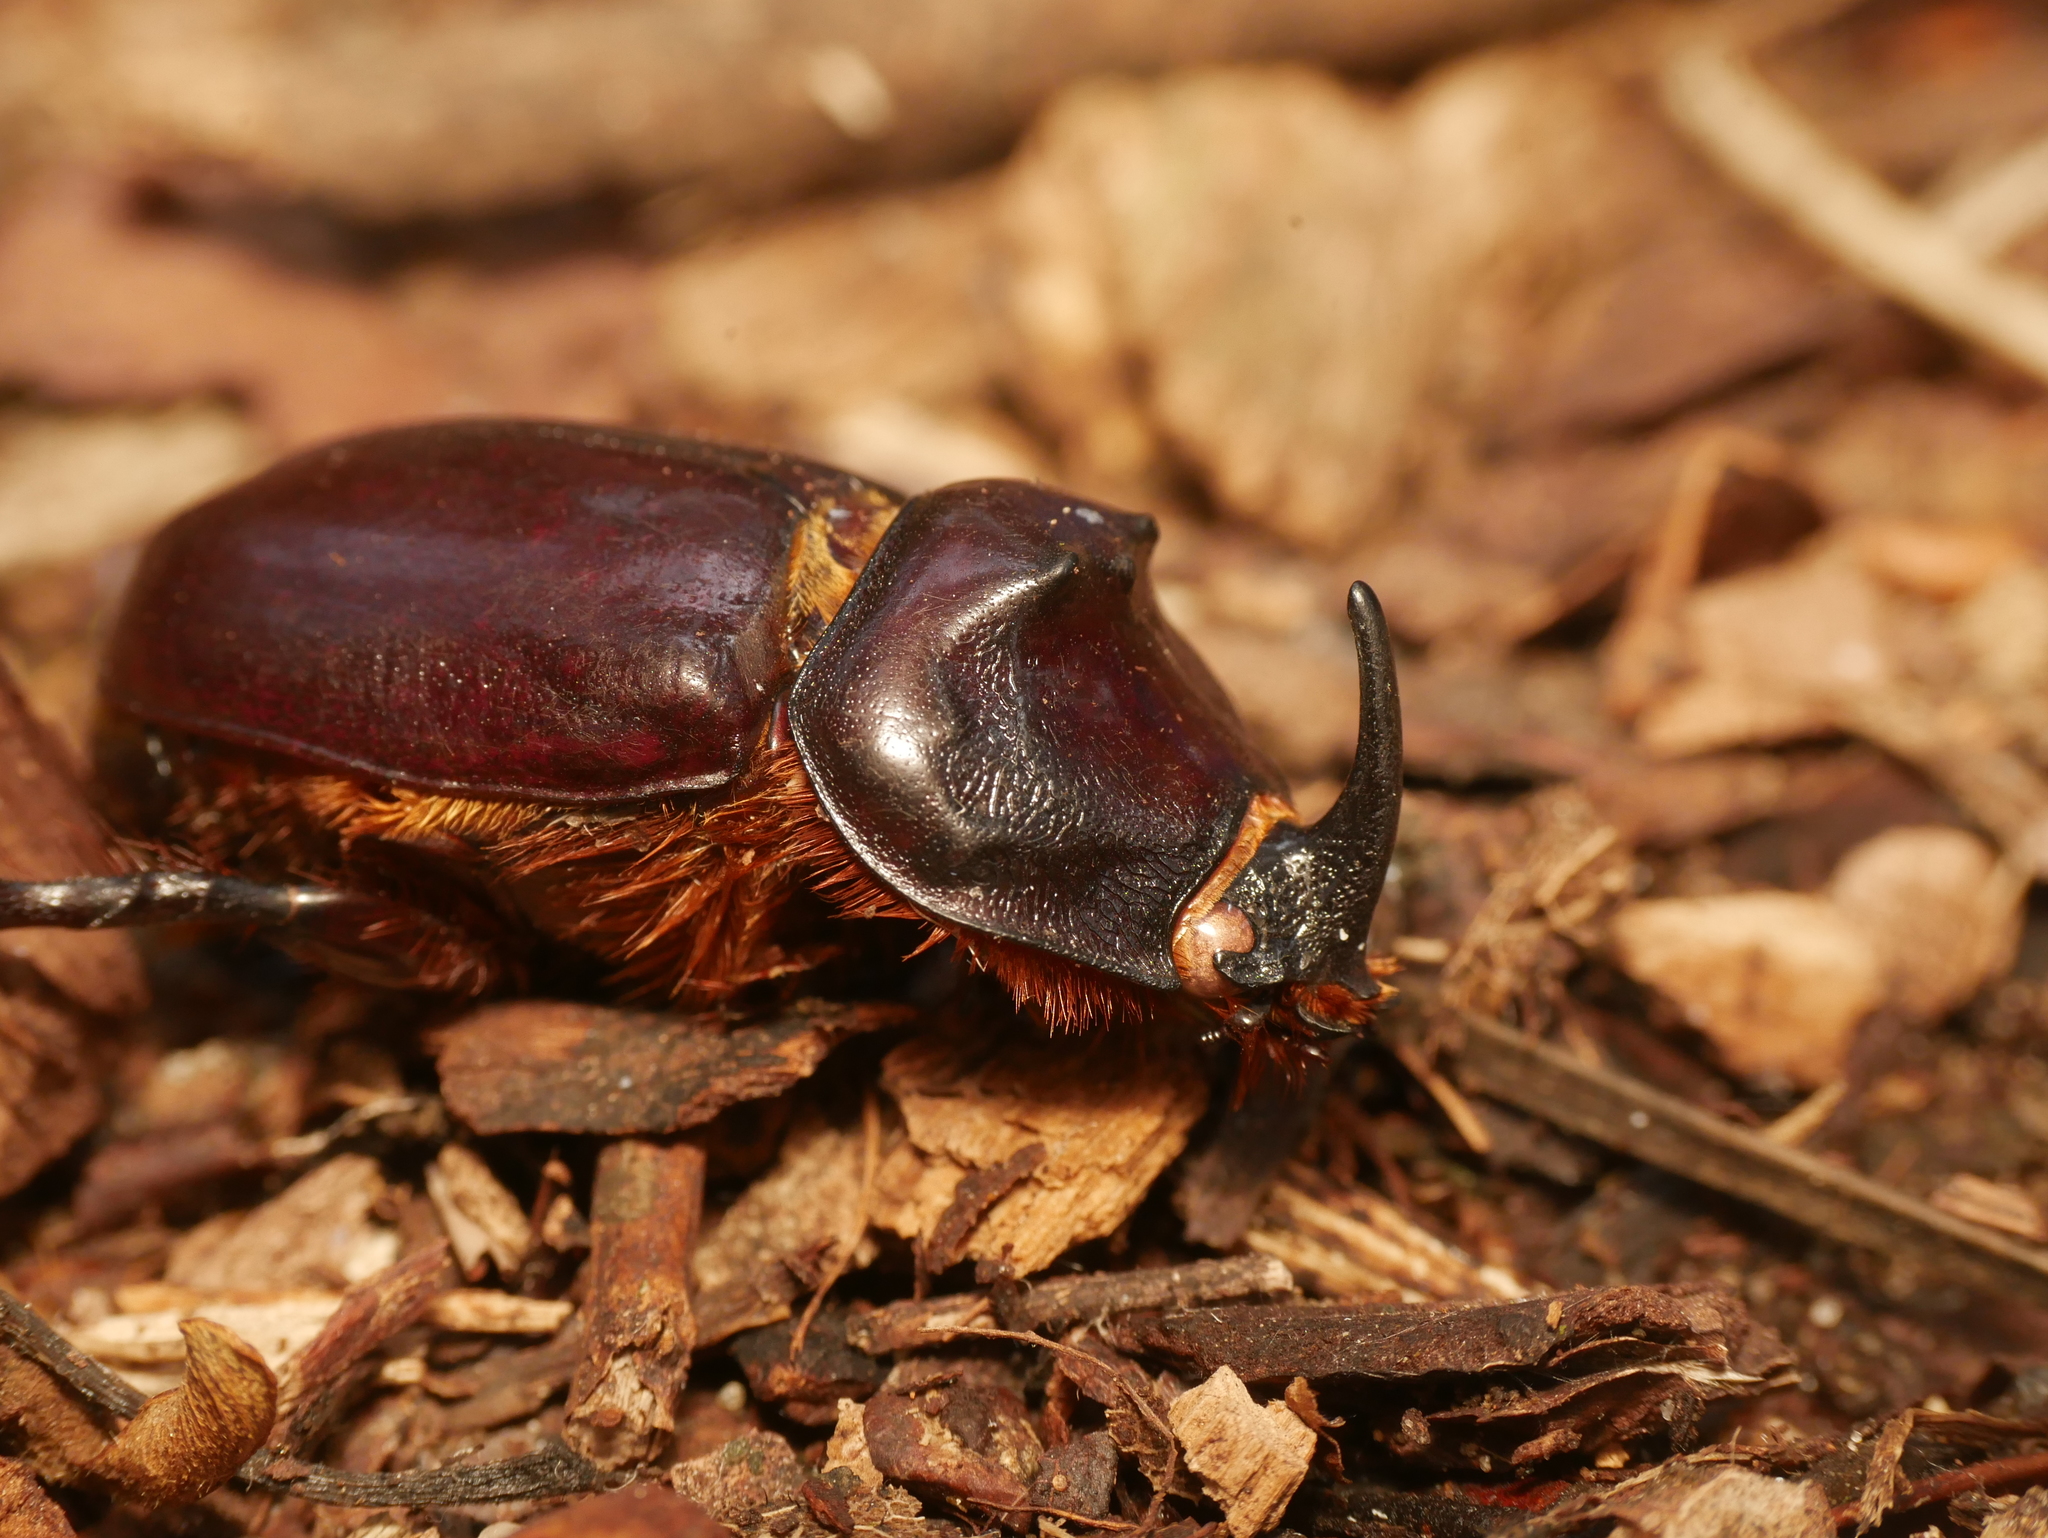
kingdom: Animalia
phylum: Arthropoda
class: Insecta
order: Coleoptera
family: Scarabaeidae
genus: Oryctes
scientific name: Oryctes nasicornis
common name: European rhinoceros beetle
